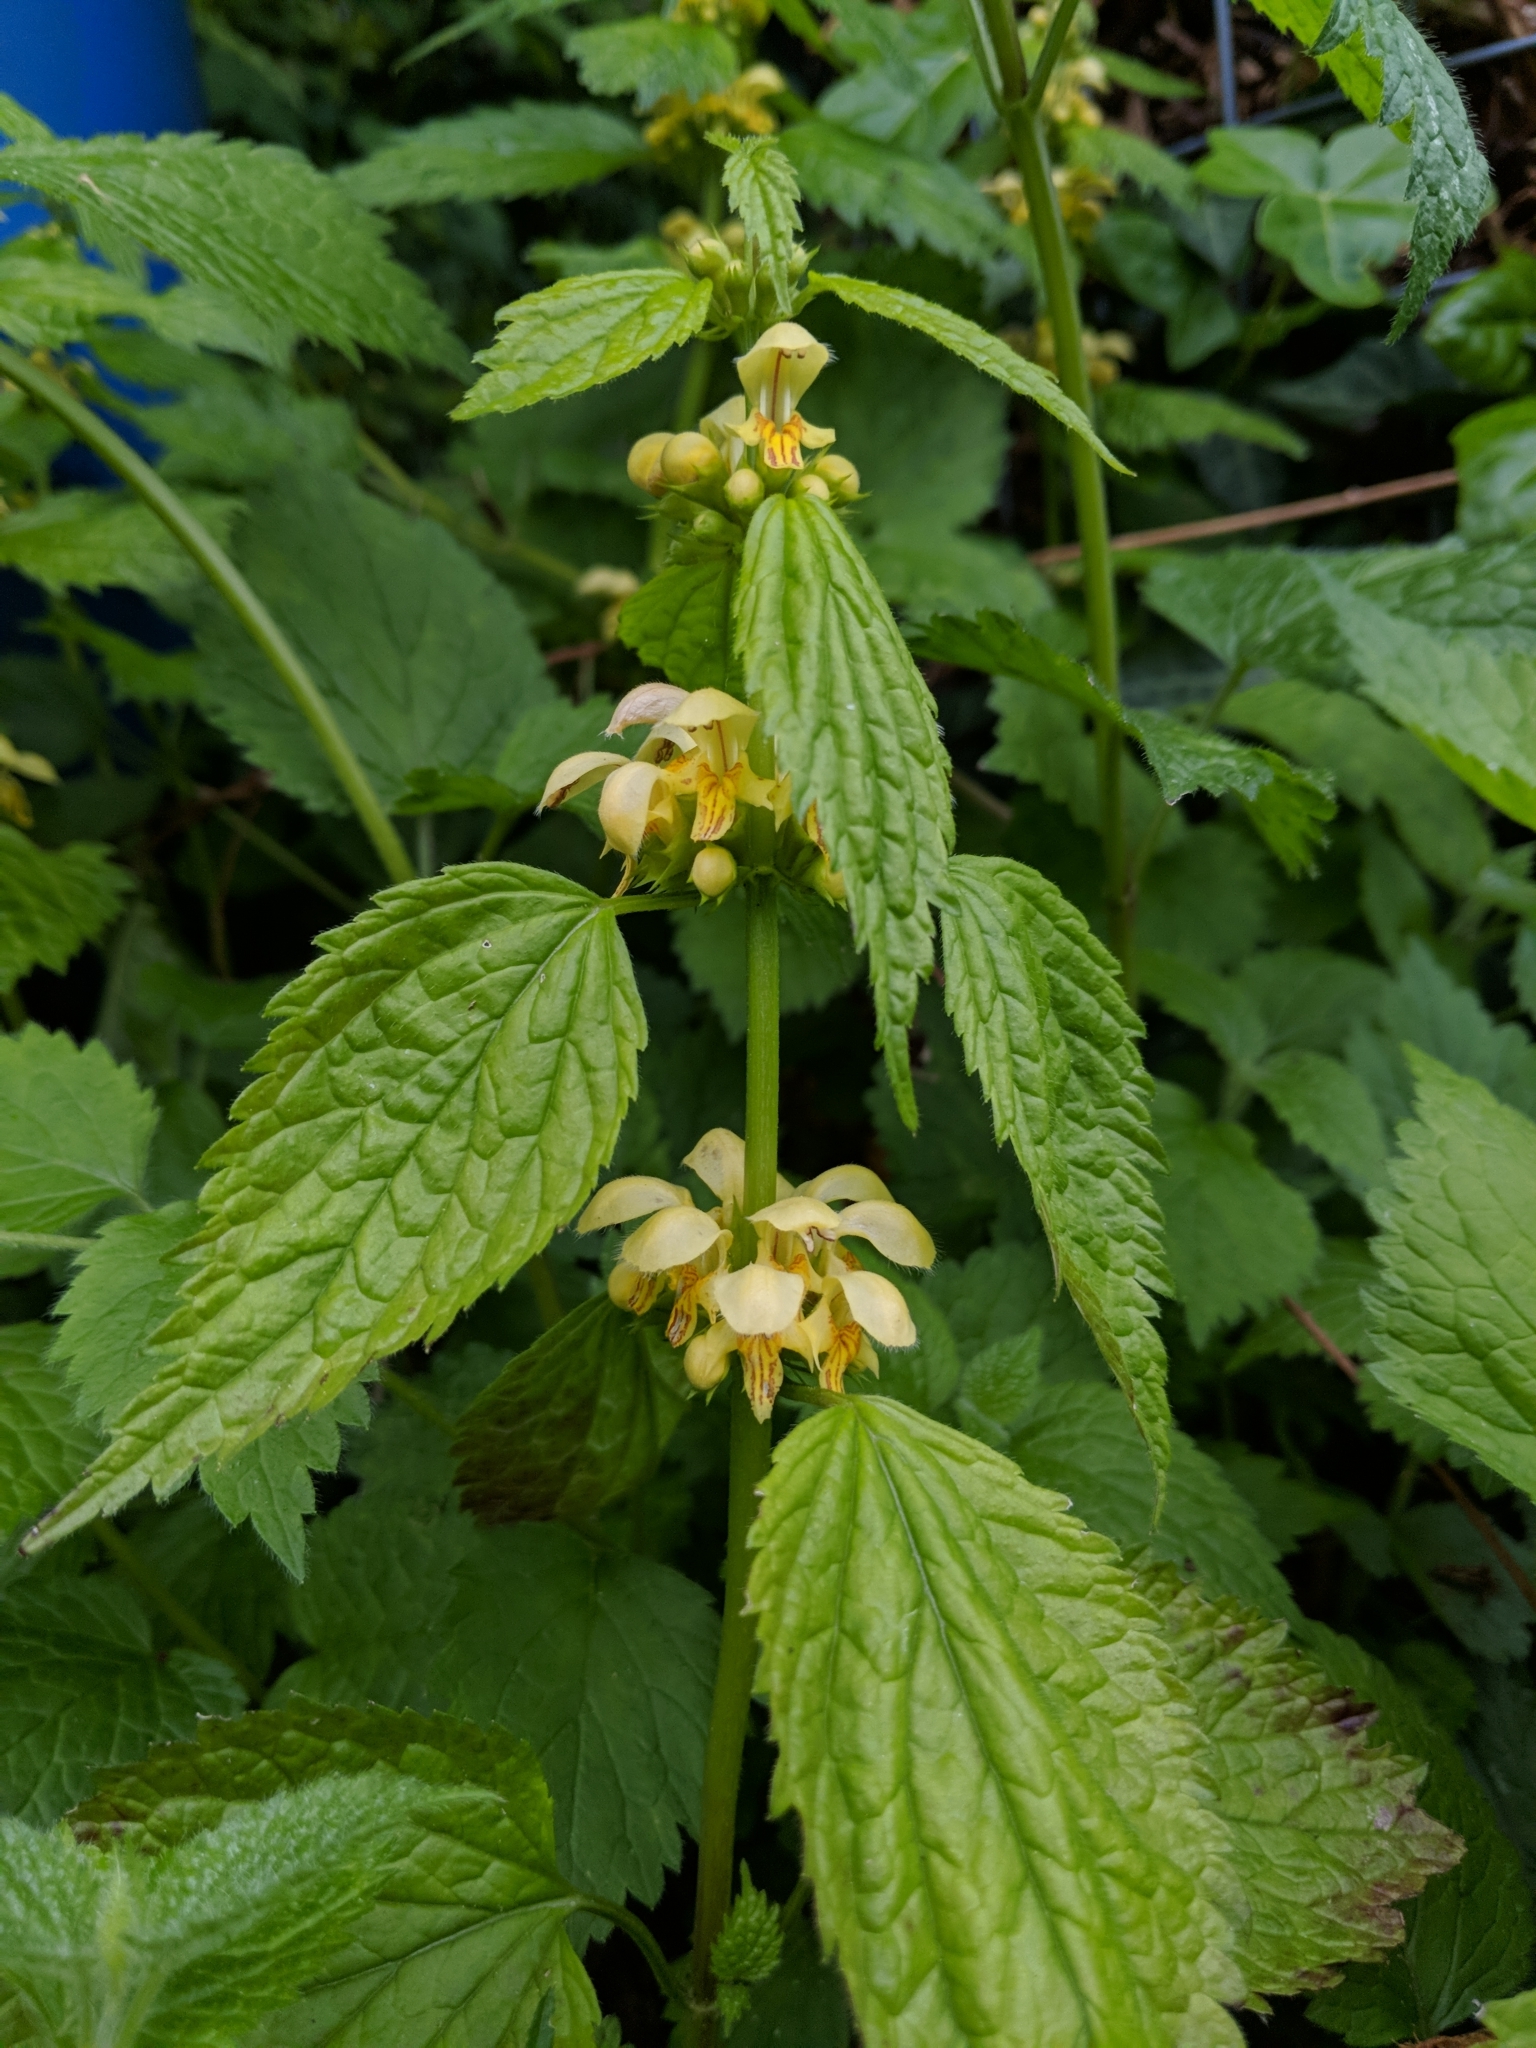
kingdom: Plantae
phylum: Tracheophyta
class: Magnoliopsida
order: Lamiales
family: Lamiaceae
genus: Lamium
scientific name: Lamium galeobdolon
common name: Yellow archangel
